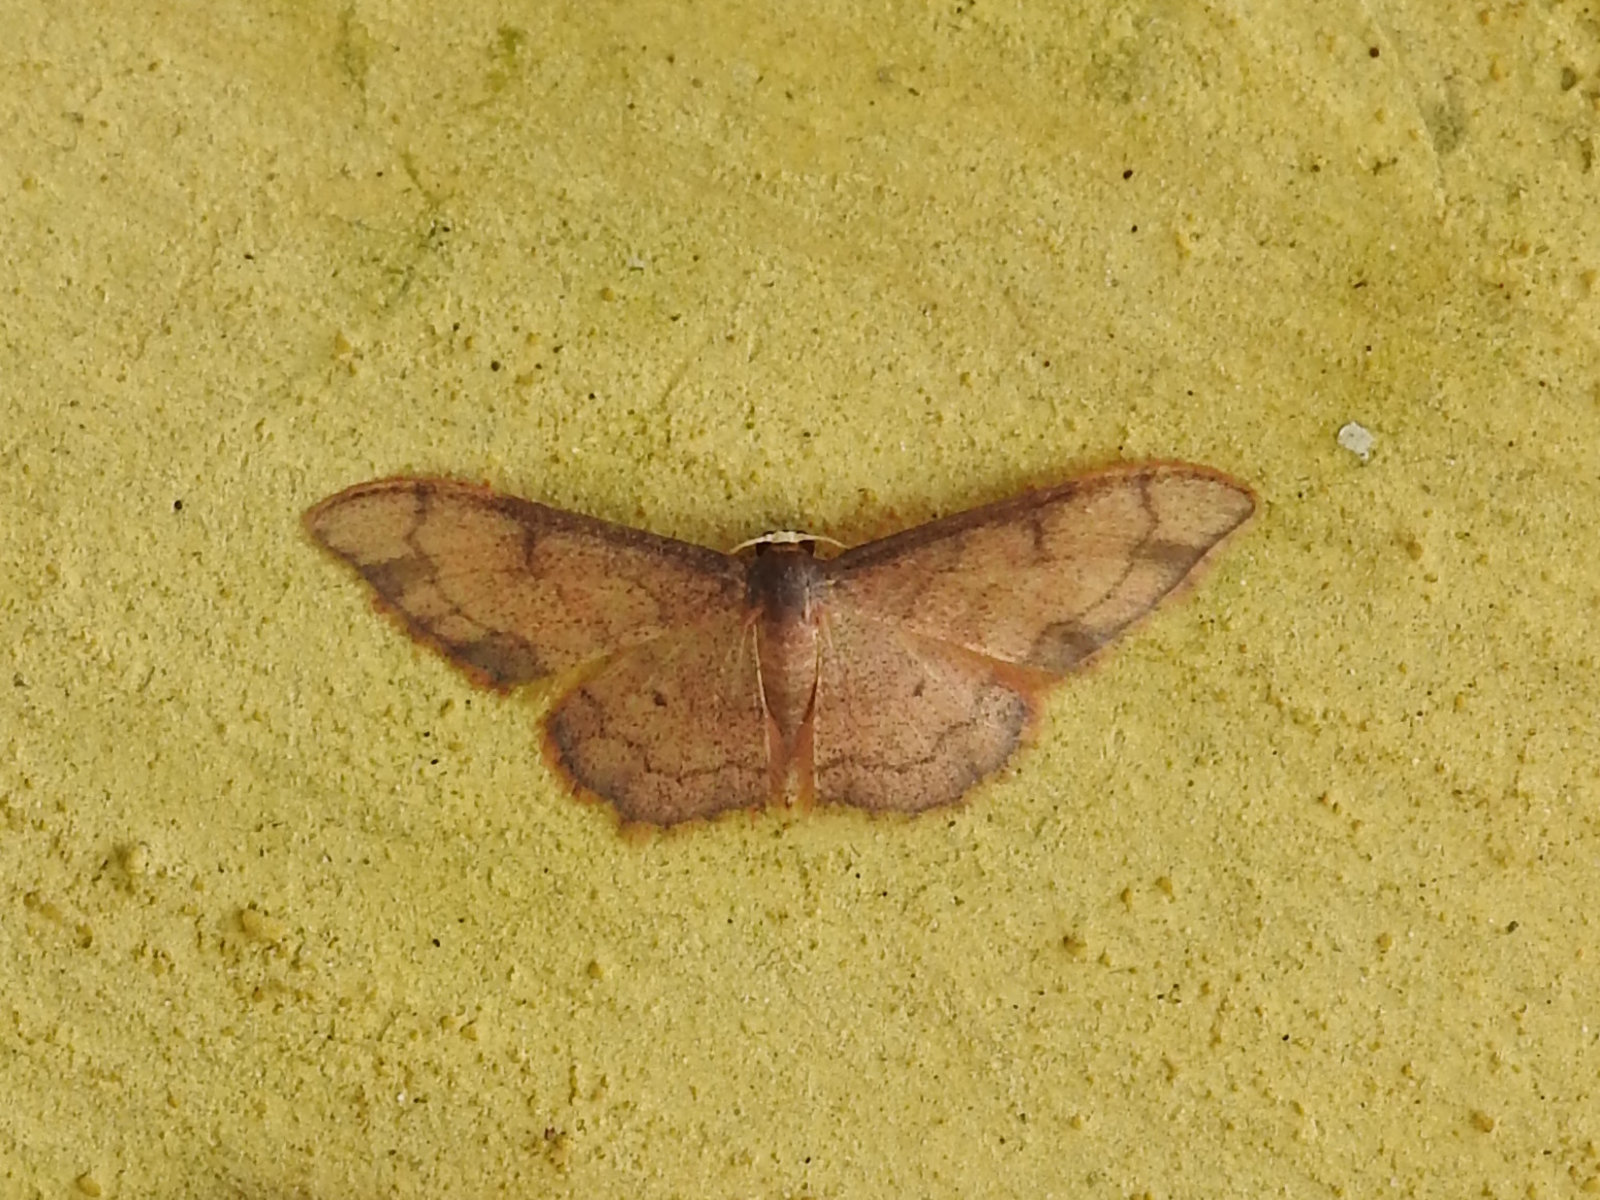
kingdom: Animalia
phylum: Arthropoda
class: Insecta
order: Lepidoptera
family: Geometridae
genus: Idaea
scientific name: Idaea protensa
